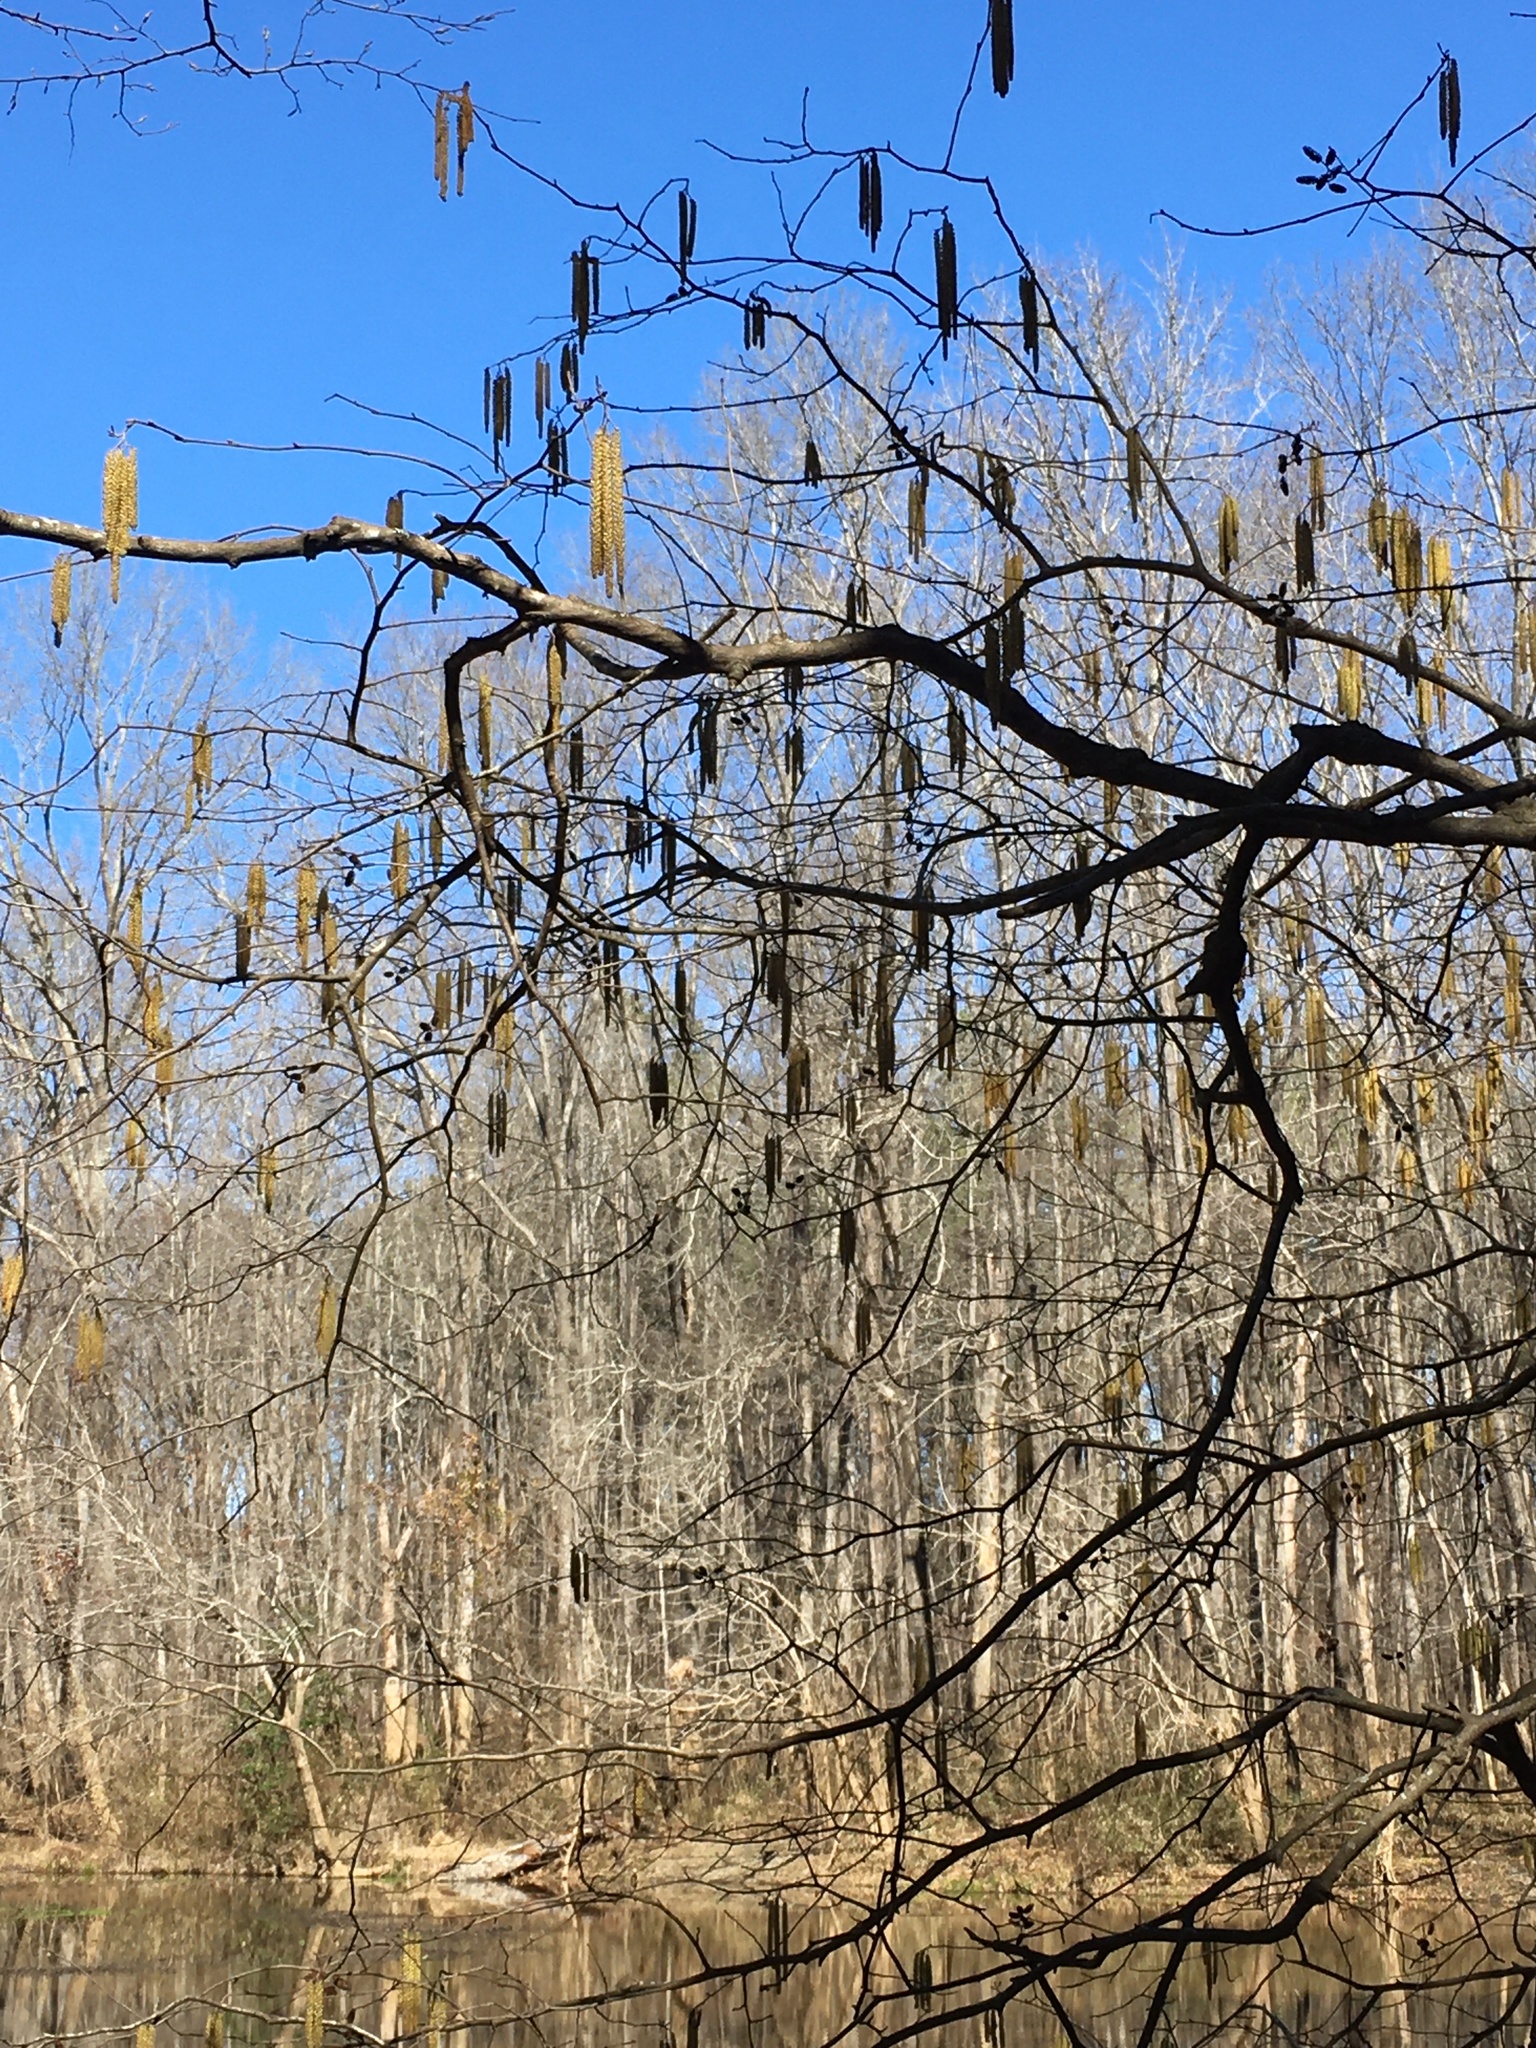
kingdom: Plantae
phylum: Tracheophyta
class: Magnoliopsida
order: Fagales
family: Betulaceae
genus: Alnus
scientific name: Alnus serrulata
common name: Hazel alder
